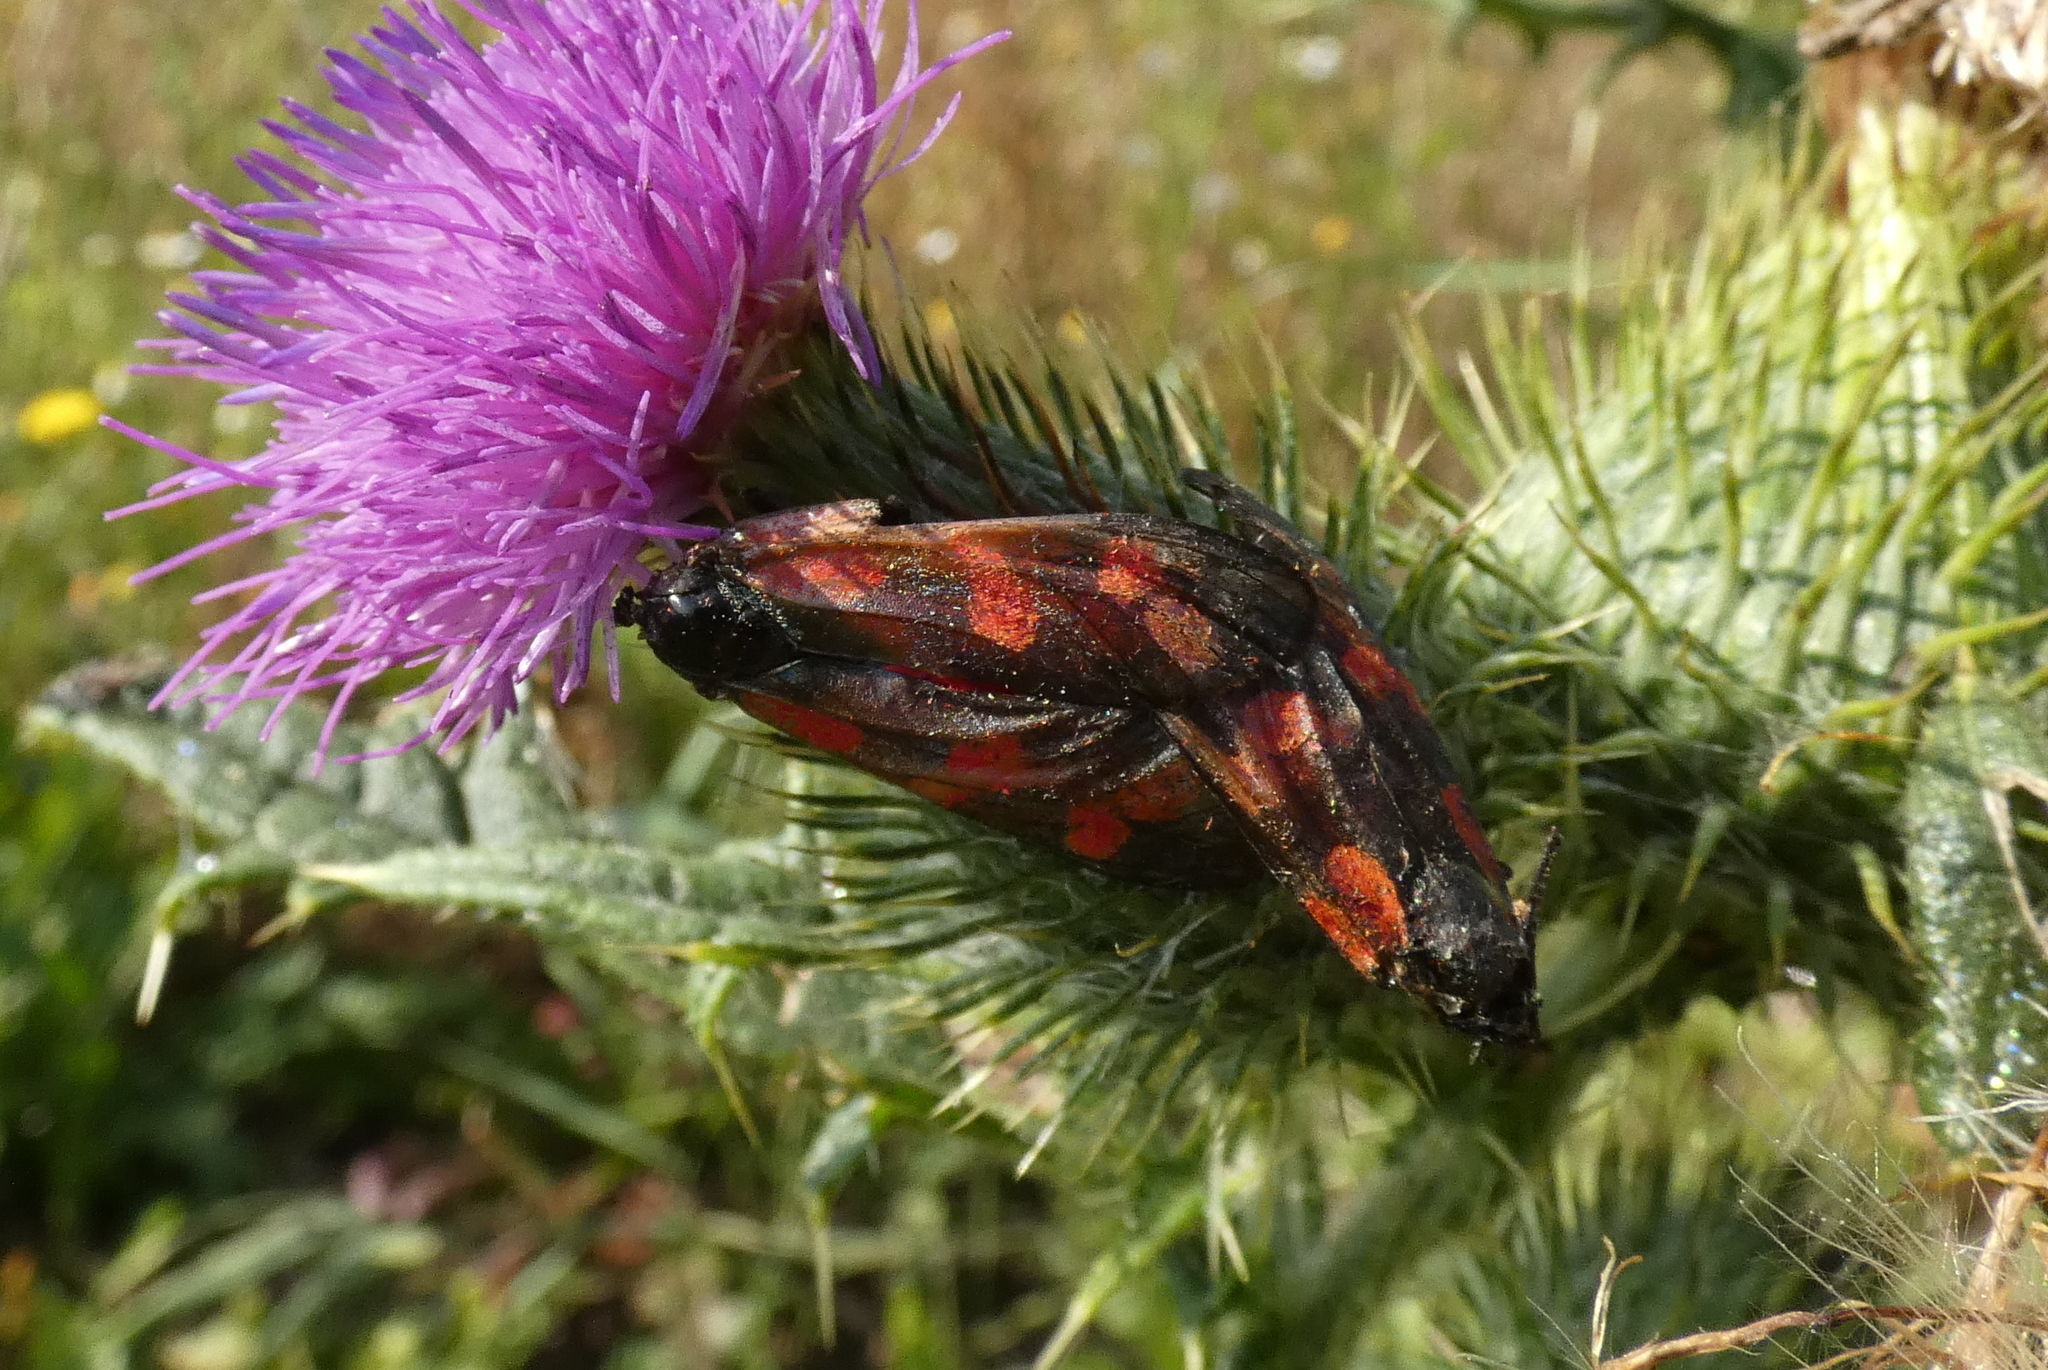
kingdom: Animalia
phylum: Arthropoda
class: Insecta
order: Lepidoptera
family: Zygaenidae
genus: Zygaena
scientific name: Zygaena filipendulae
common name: Six-spot burnet
